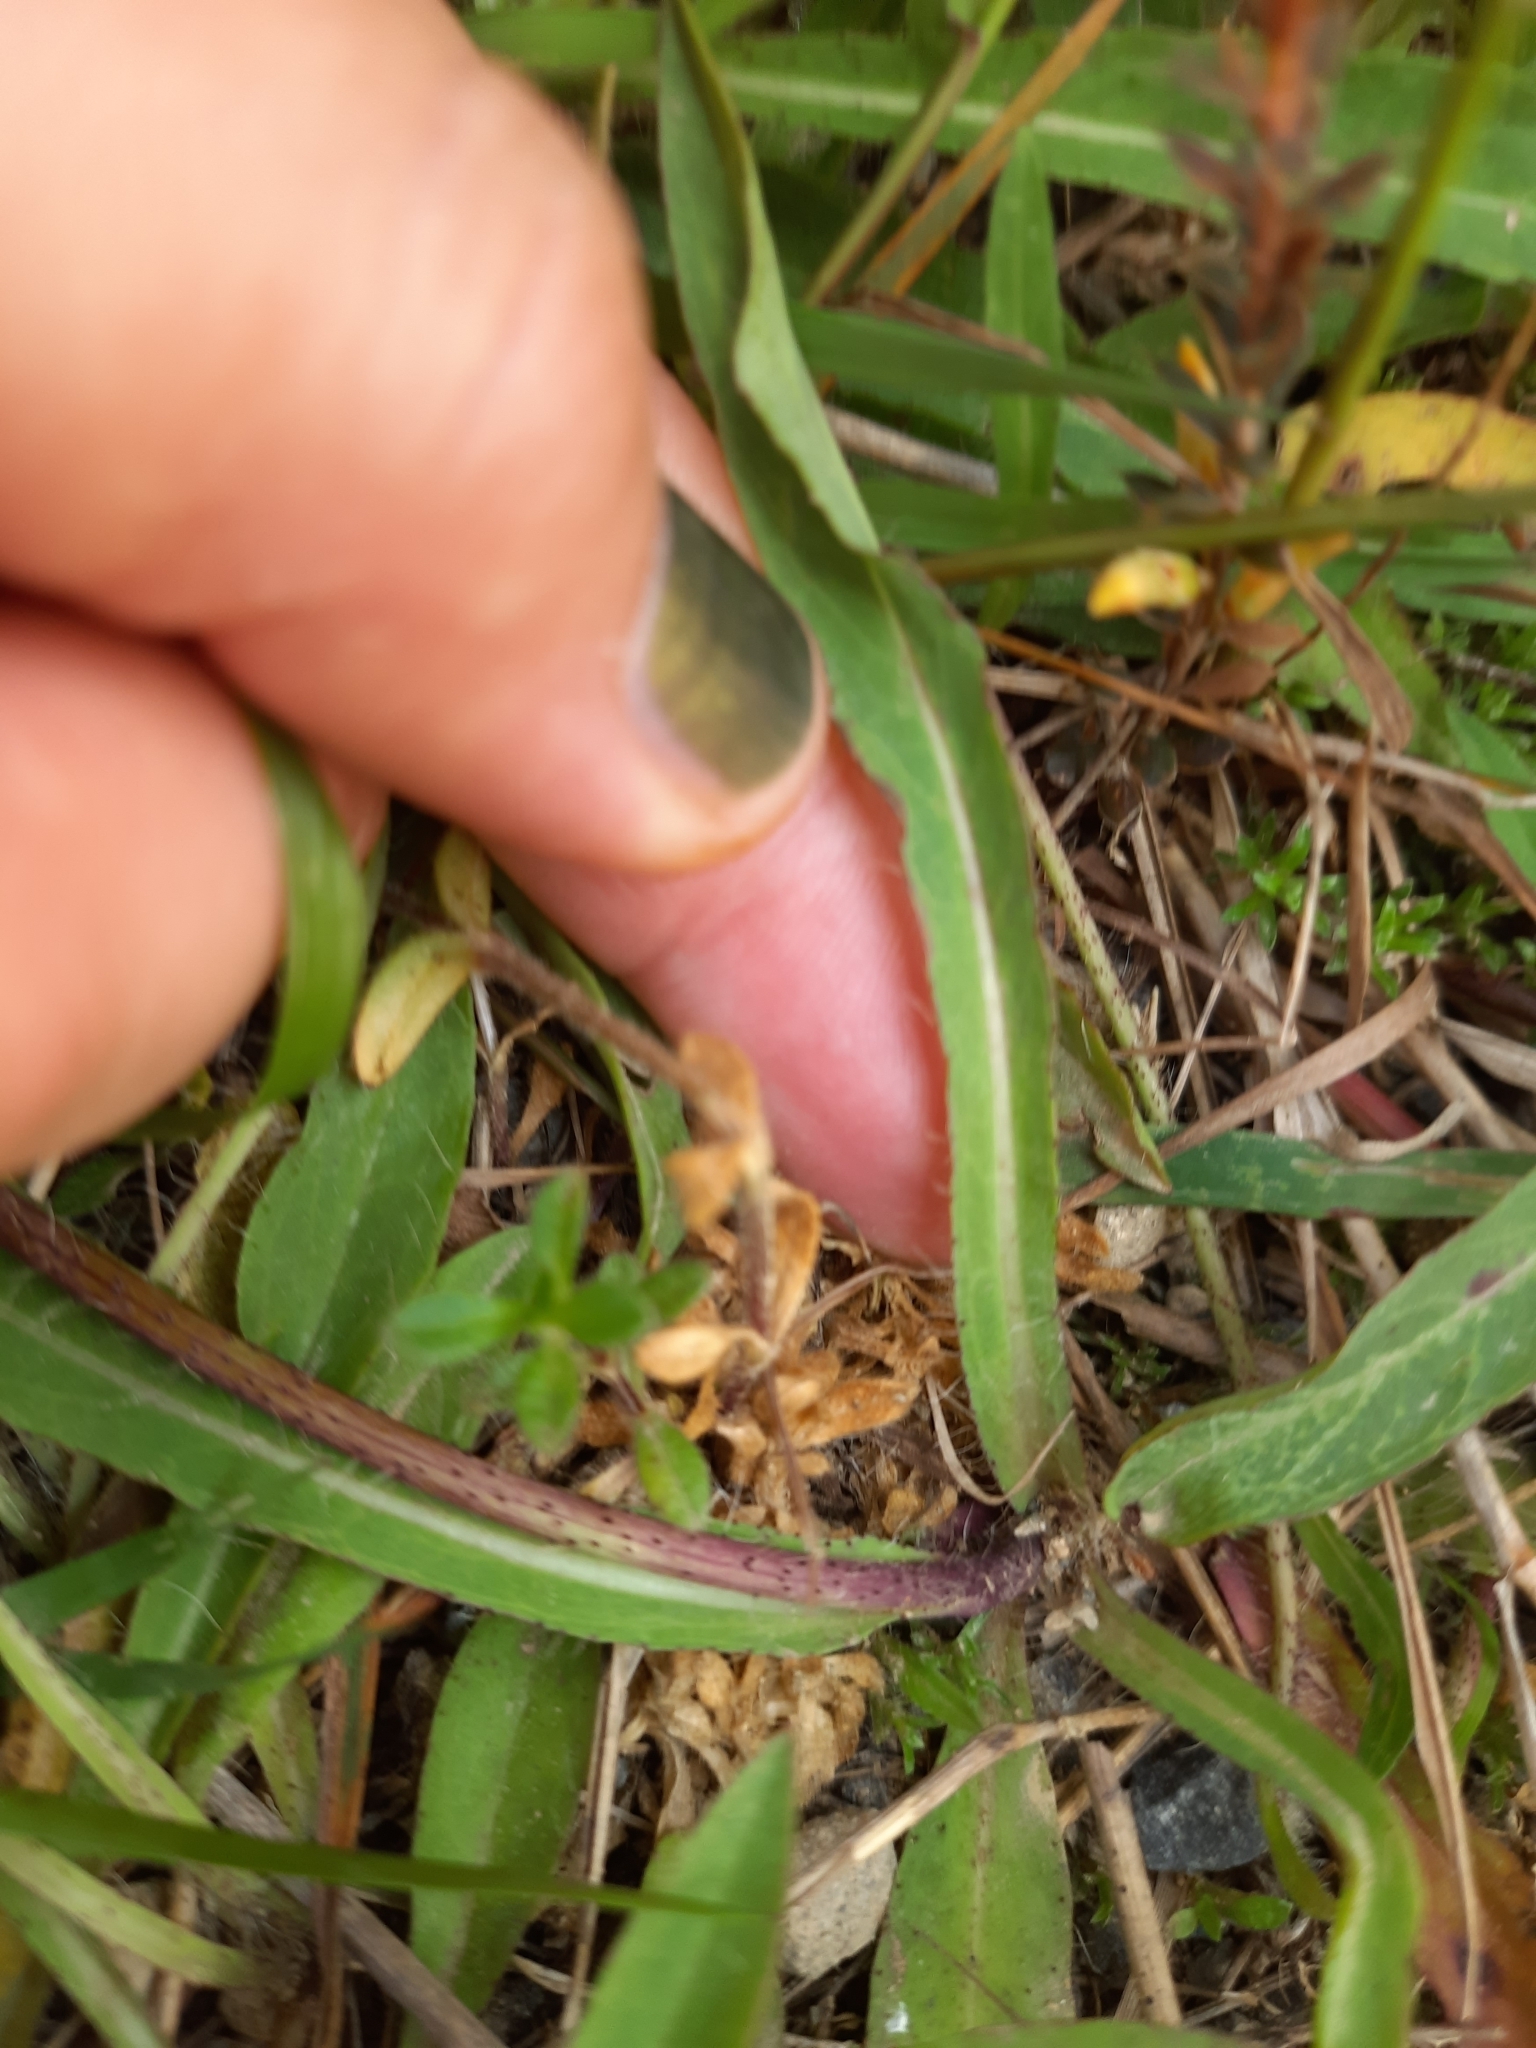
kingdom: Plantae
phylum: Tracheophyta
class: Magnoliopsida
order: Asterales
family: Asteraceae
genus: Pilosella
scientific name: Pilosella caespitosa
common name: Yellow fox-and-cubs
